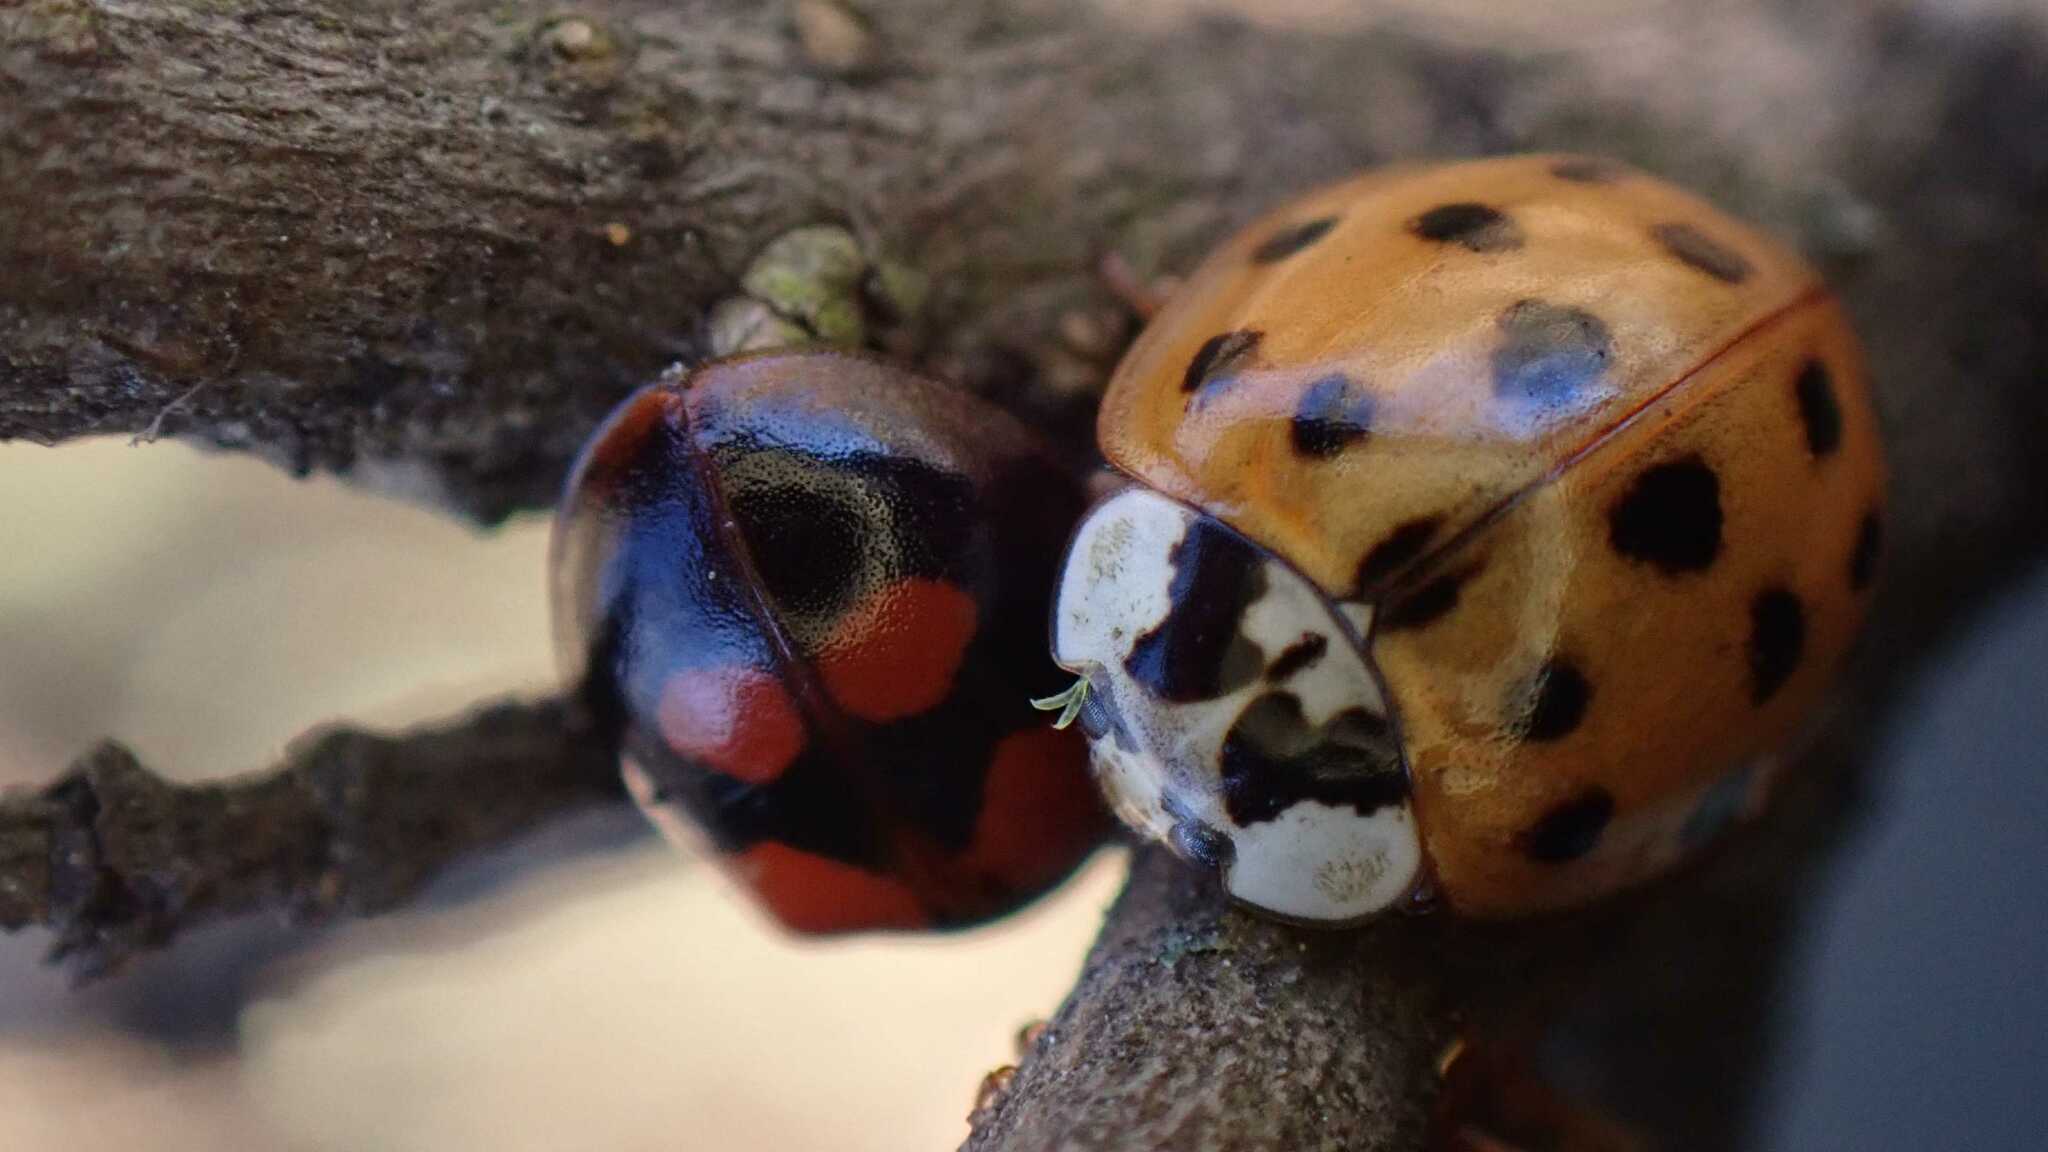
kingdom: Fungi
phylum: Ascomycota
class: Laboulbeniomycetes
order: Laboulbeniales
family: Laboulbeniaceae
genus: Hesperomyces
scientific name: Hesperomyces harmoniae
